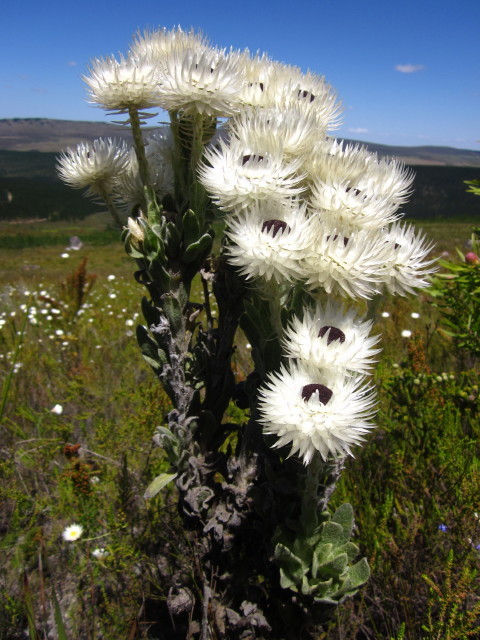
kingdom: Plantae
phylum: Tracheophyta
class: Magnoliopsida
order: Asterales
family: Asteraceae
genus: Syncarpha
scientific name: Syncarpha vestita
